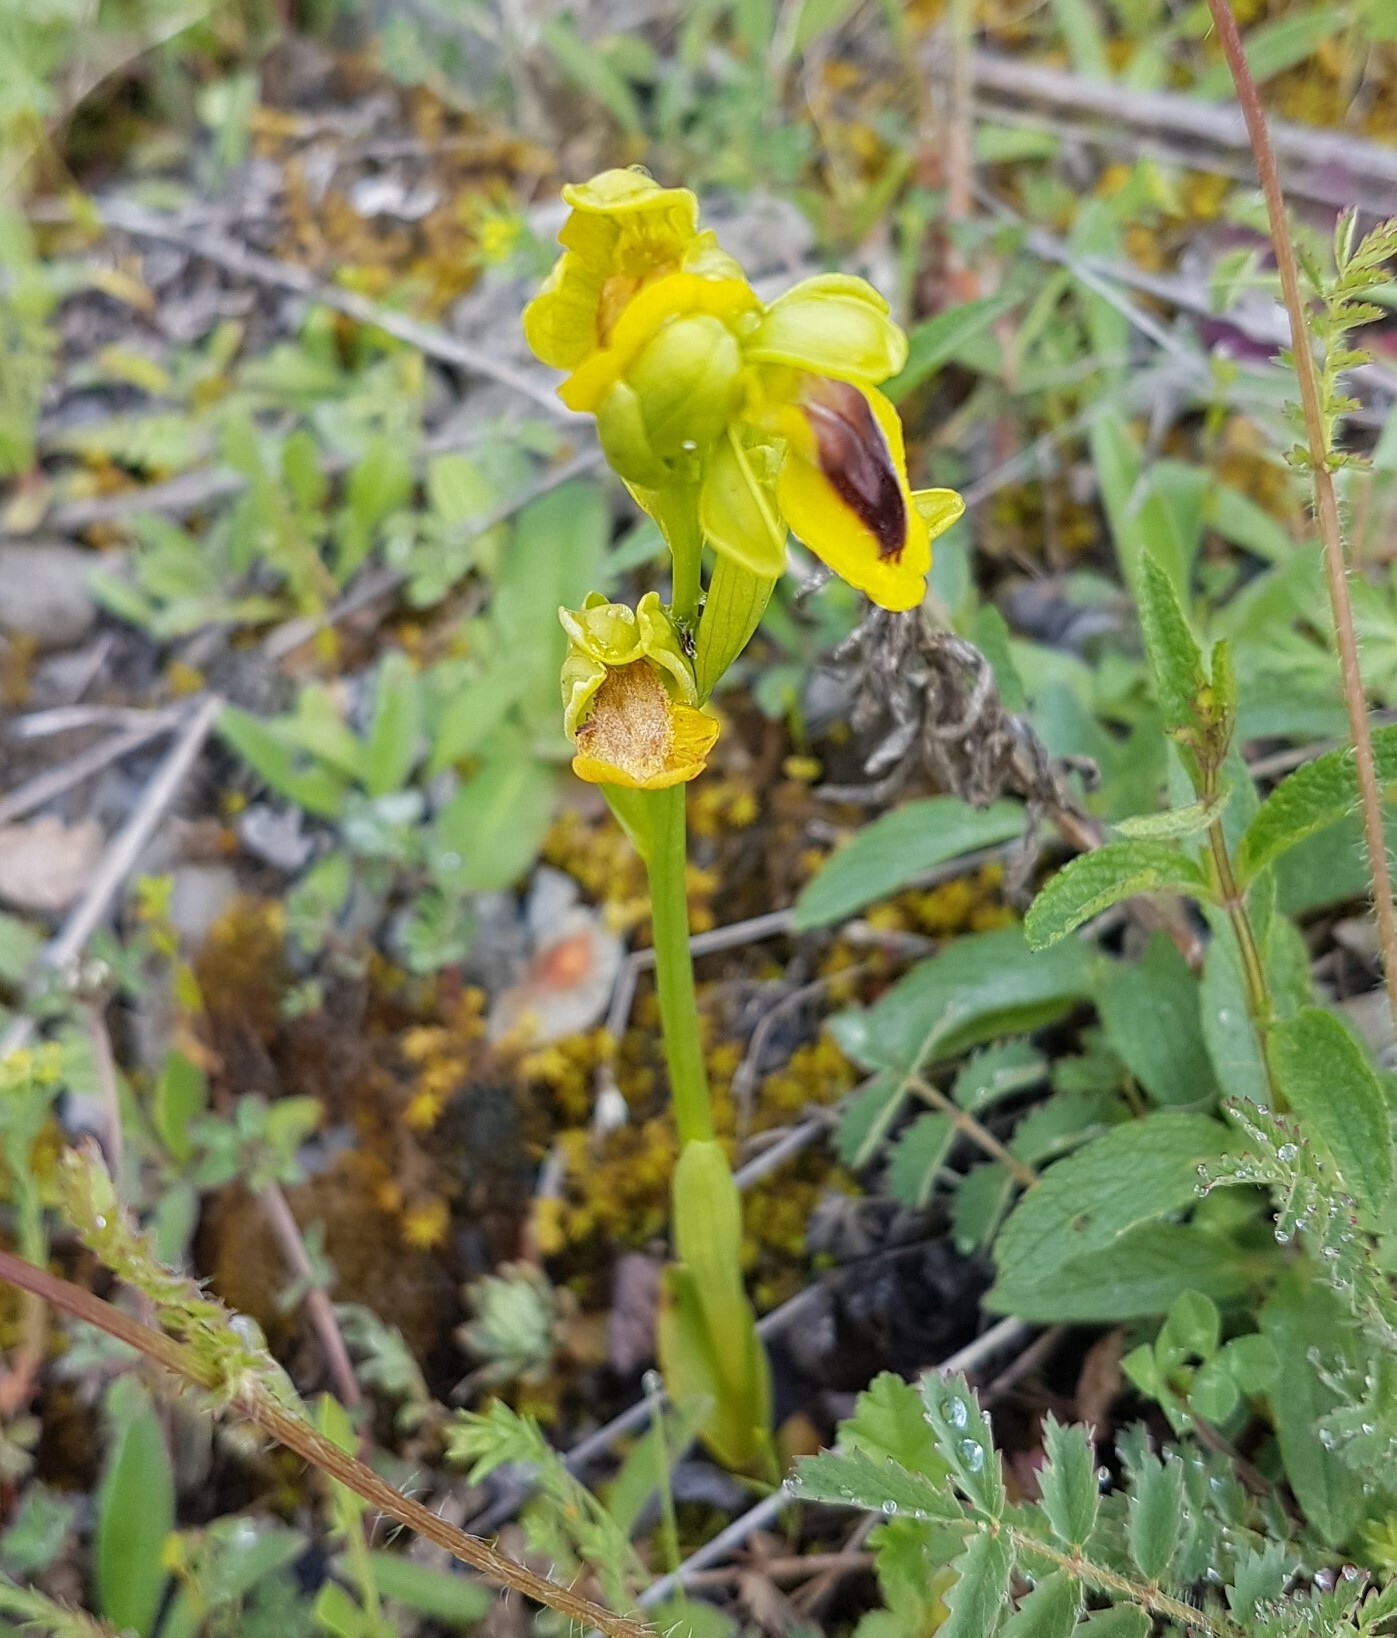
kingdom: Plantae
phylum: Tracheophyta
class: Liliopsida
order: Asparagales
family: Orchidaceae
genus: Ophrys
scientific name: Ophrys lutea
